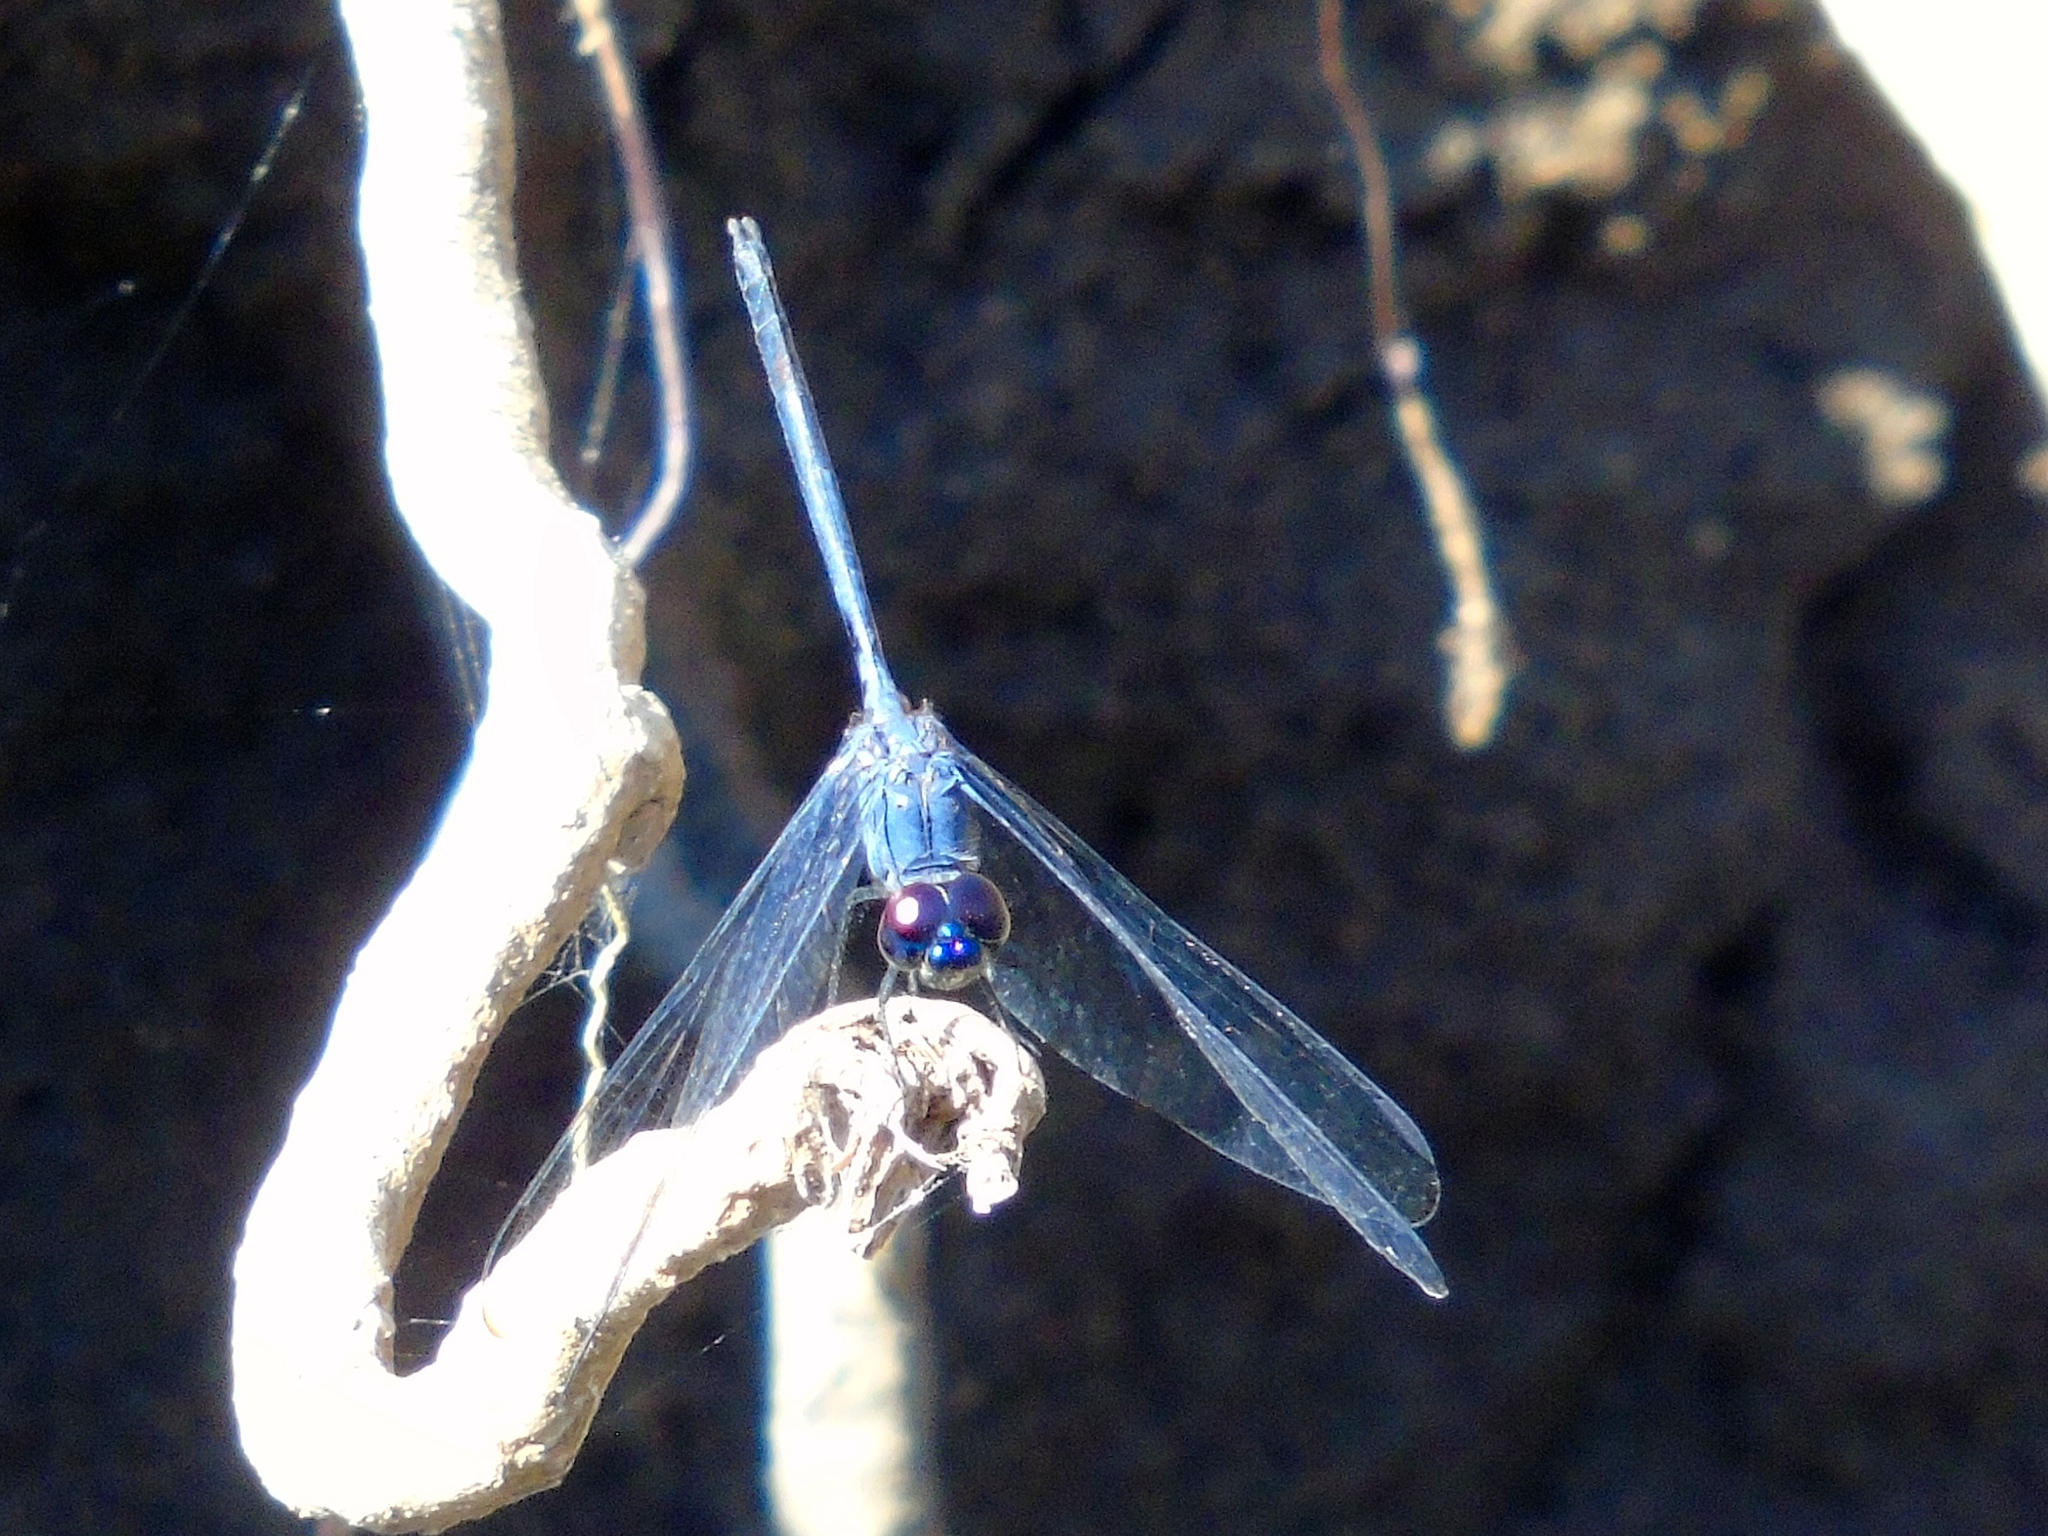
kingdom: Animalia
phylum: Arthropoda
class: Insecta
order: Odonata
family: Libellulidae
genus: Dythemis
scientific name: Dythemis nigrescens
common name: Black setwing
